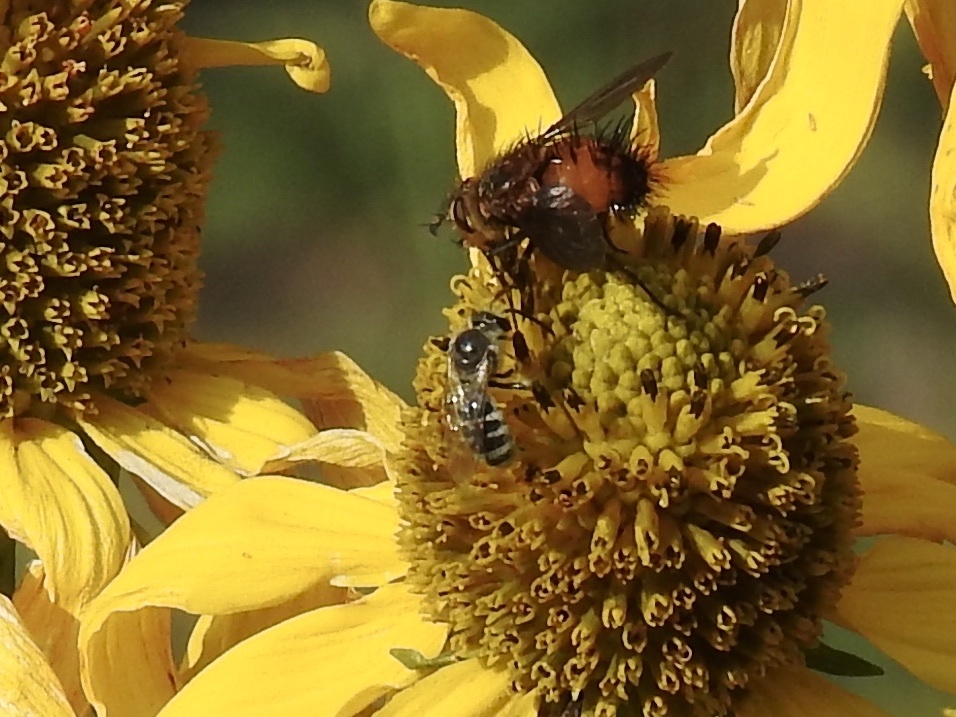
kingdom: Animalia
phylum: Arthropoda
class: Insecta
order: Hymenoptera
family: Halictidae
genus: Lasioglossum
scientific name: Lasioglossum sisymbrii
